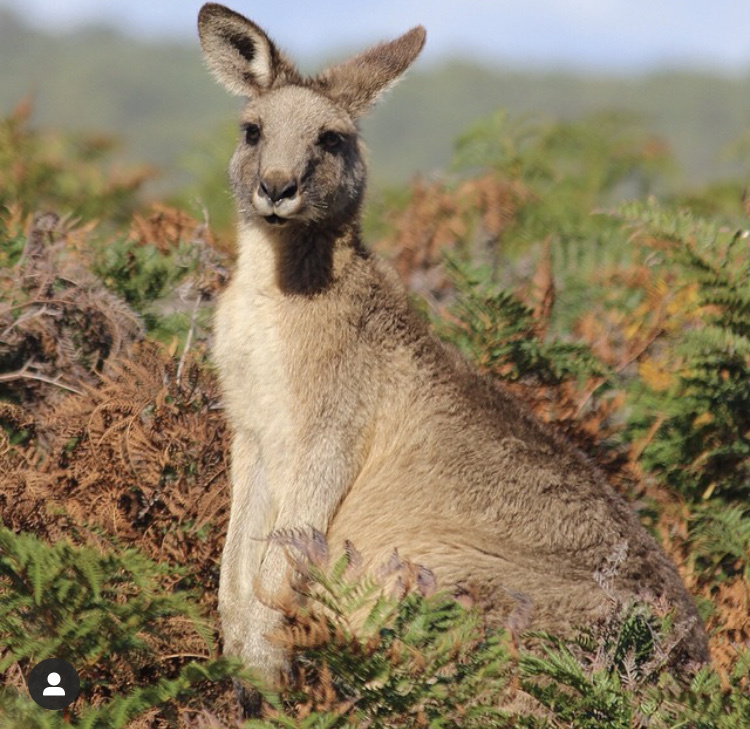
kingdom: Animalia
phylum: Chordata
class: Mammalia
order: Diprotodontia
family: Macropodidae
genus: Macropus
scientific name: Macropus giganteus
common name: Eastern grey kangaroo
